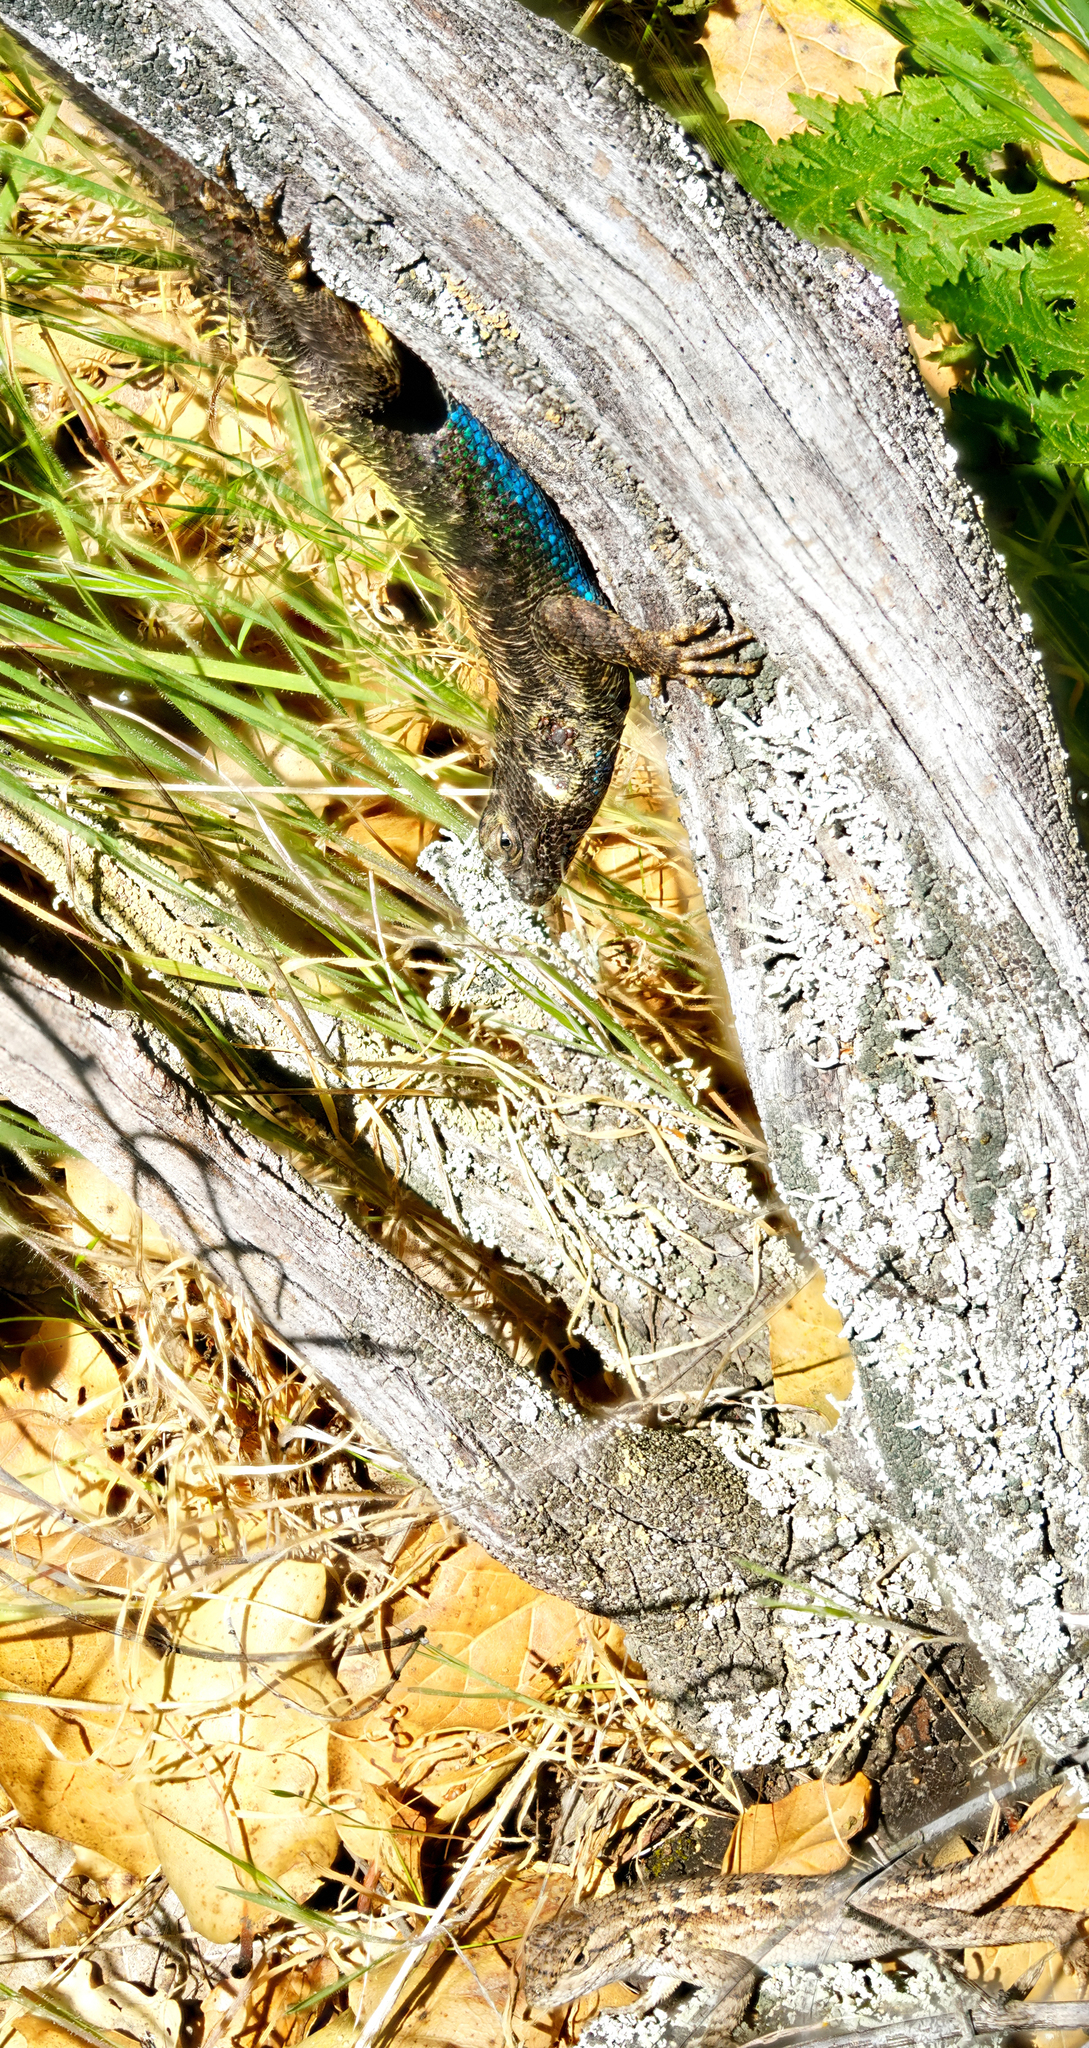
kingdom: Animalia
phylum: Chordata
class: Squamata
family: Phrynosomatidae
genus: Sceloporus
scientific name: Sceloporus occidentalis
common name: Western fence lizard
